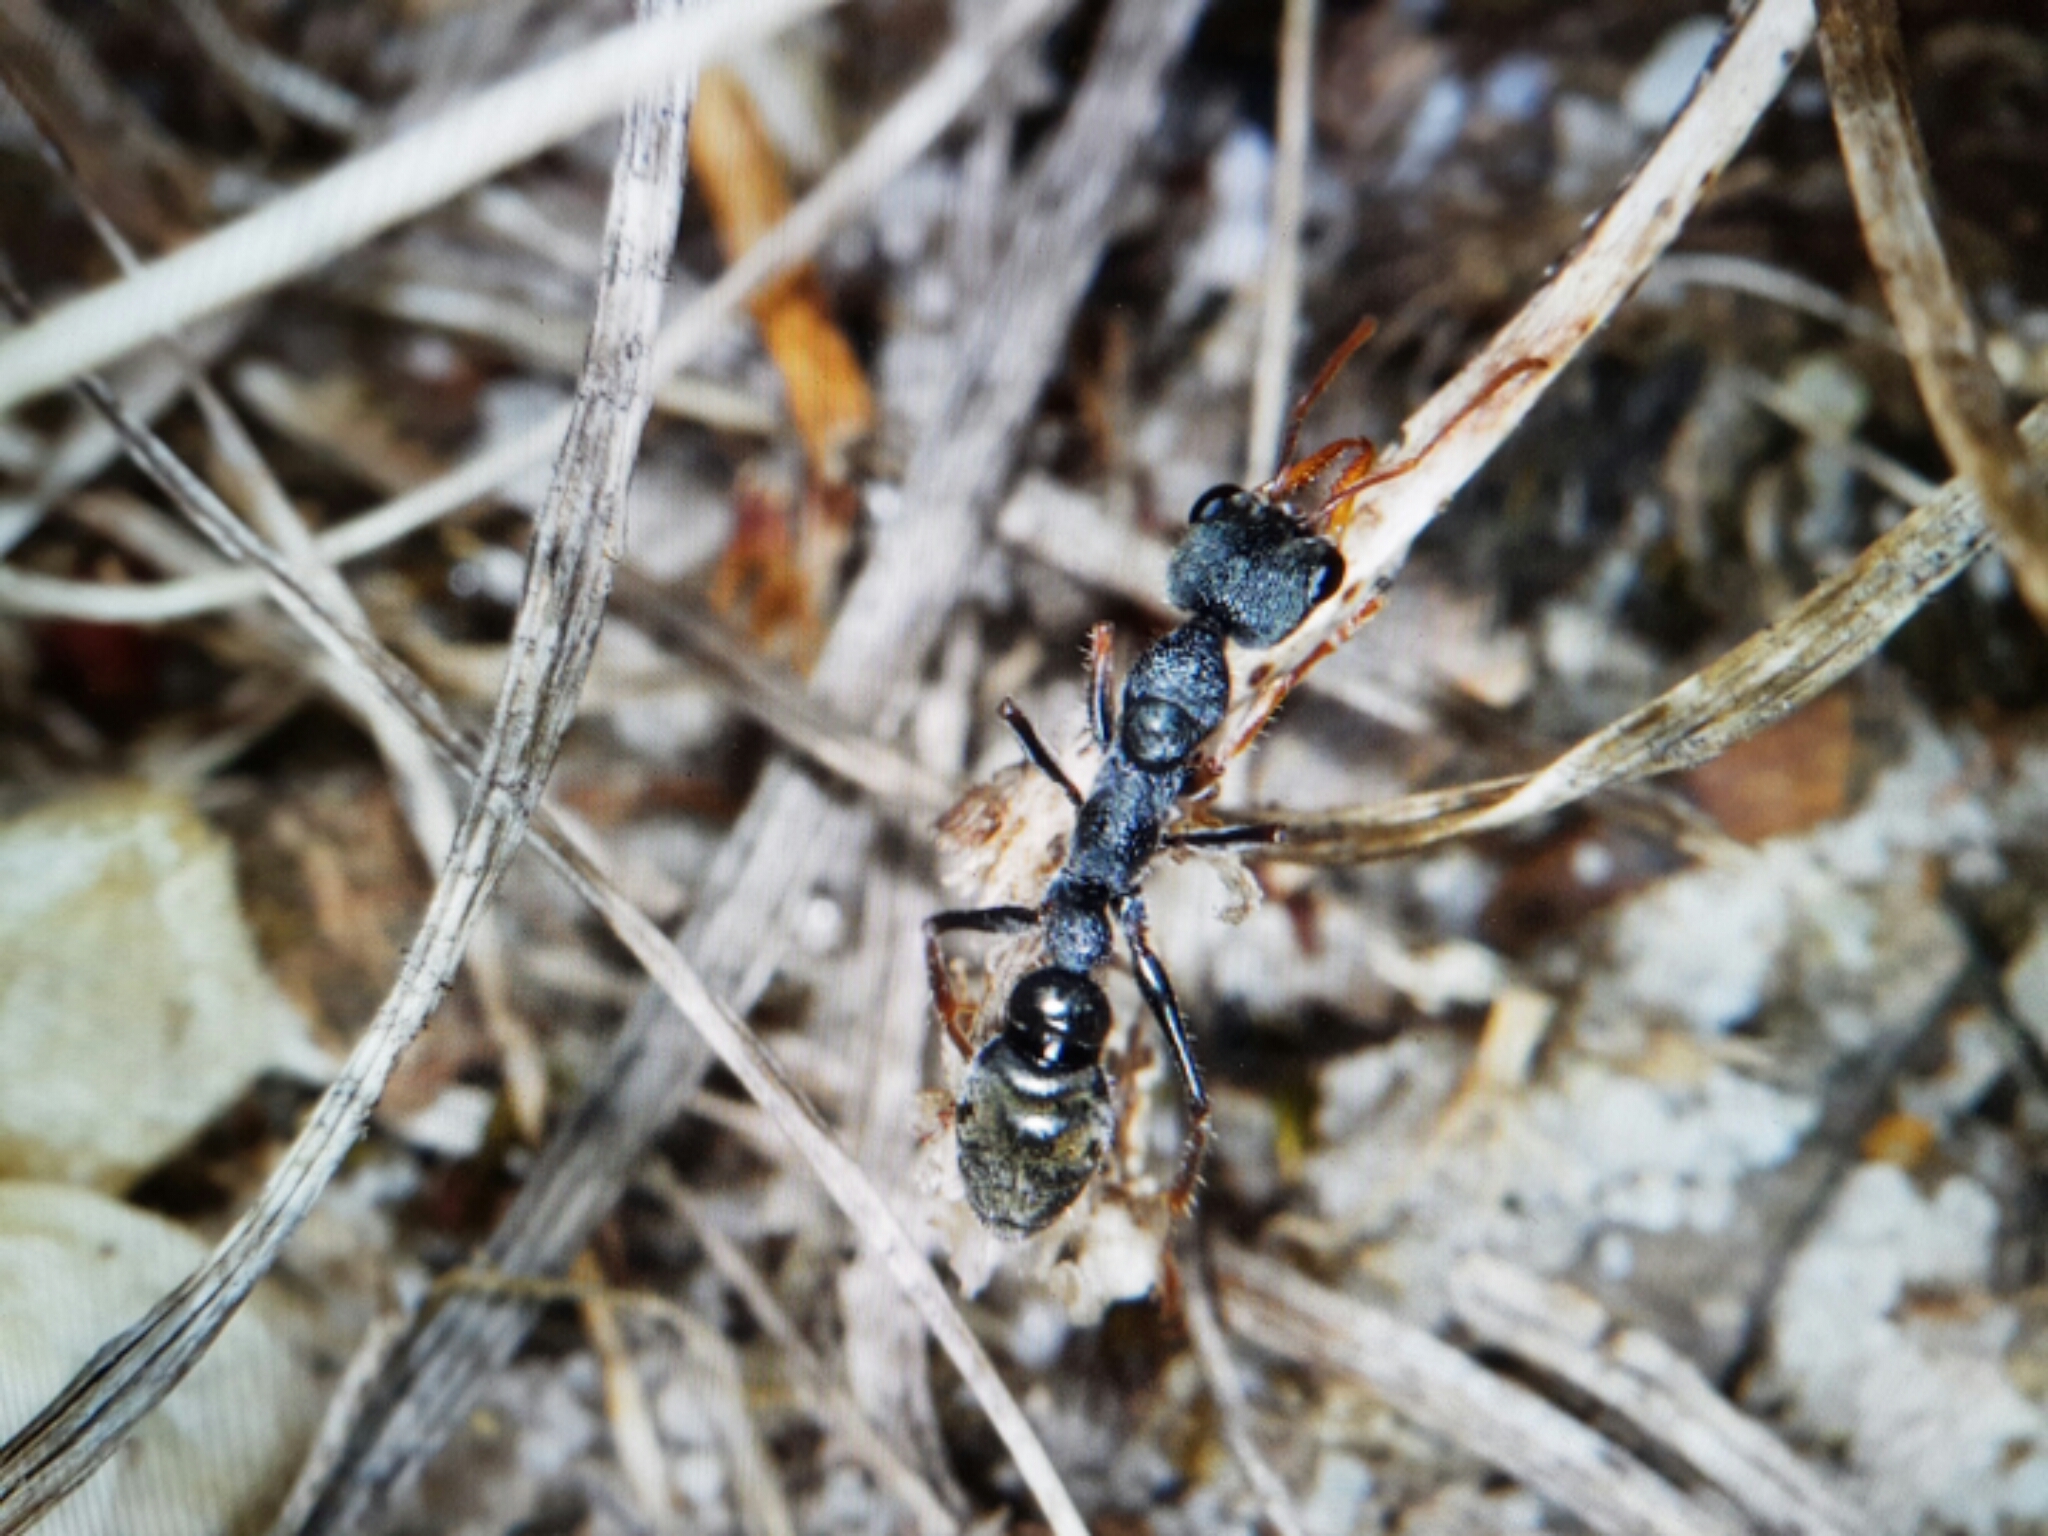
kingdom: Animalia
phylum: Arthropoda
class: Insecta
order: Hymenoptera
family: Formicidae
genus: Myrmecia
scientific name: Myrmecia urens
